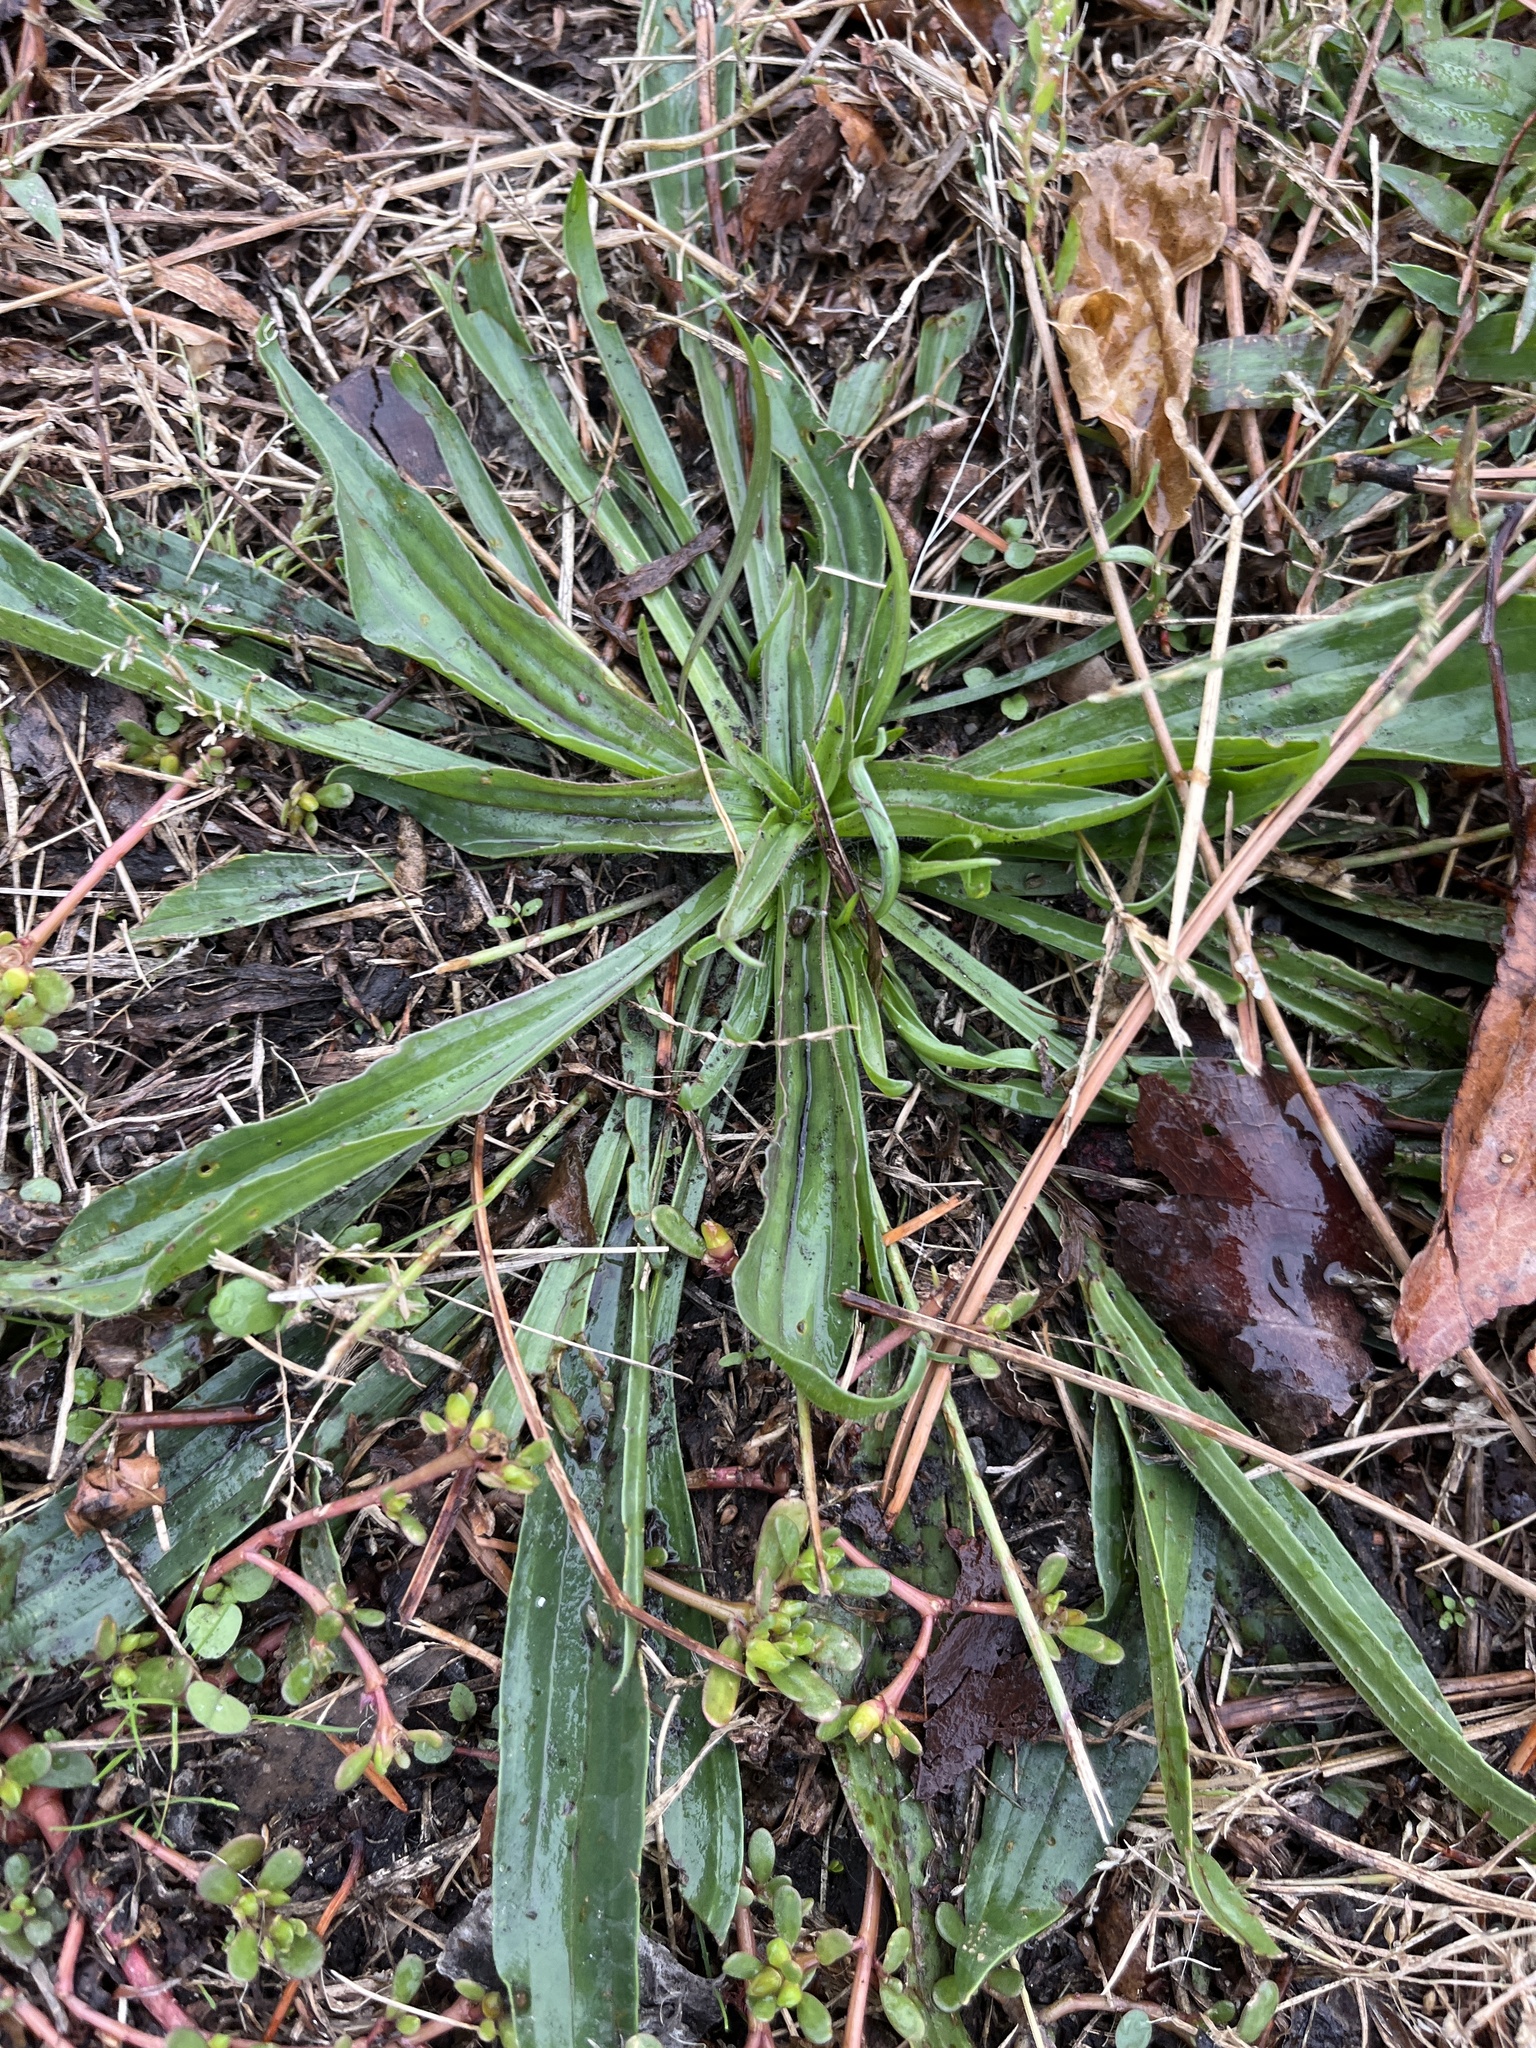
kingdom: Plantae
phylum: Tracheophyta
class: Magnoliopsida
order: Lamiales
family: Plantaginaceae
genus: Plantago
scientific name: Plantago lanceolata
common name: Ribwort plantain
